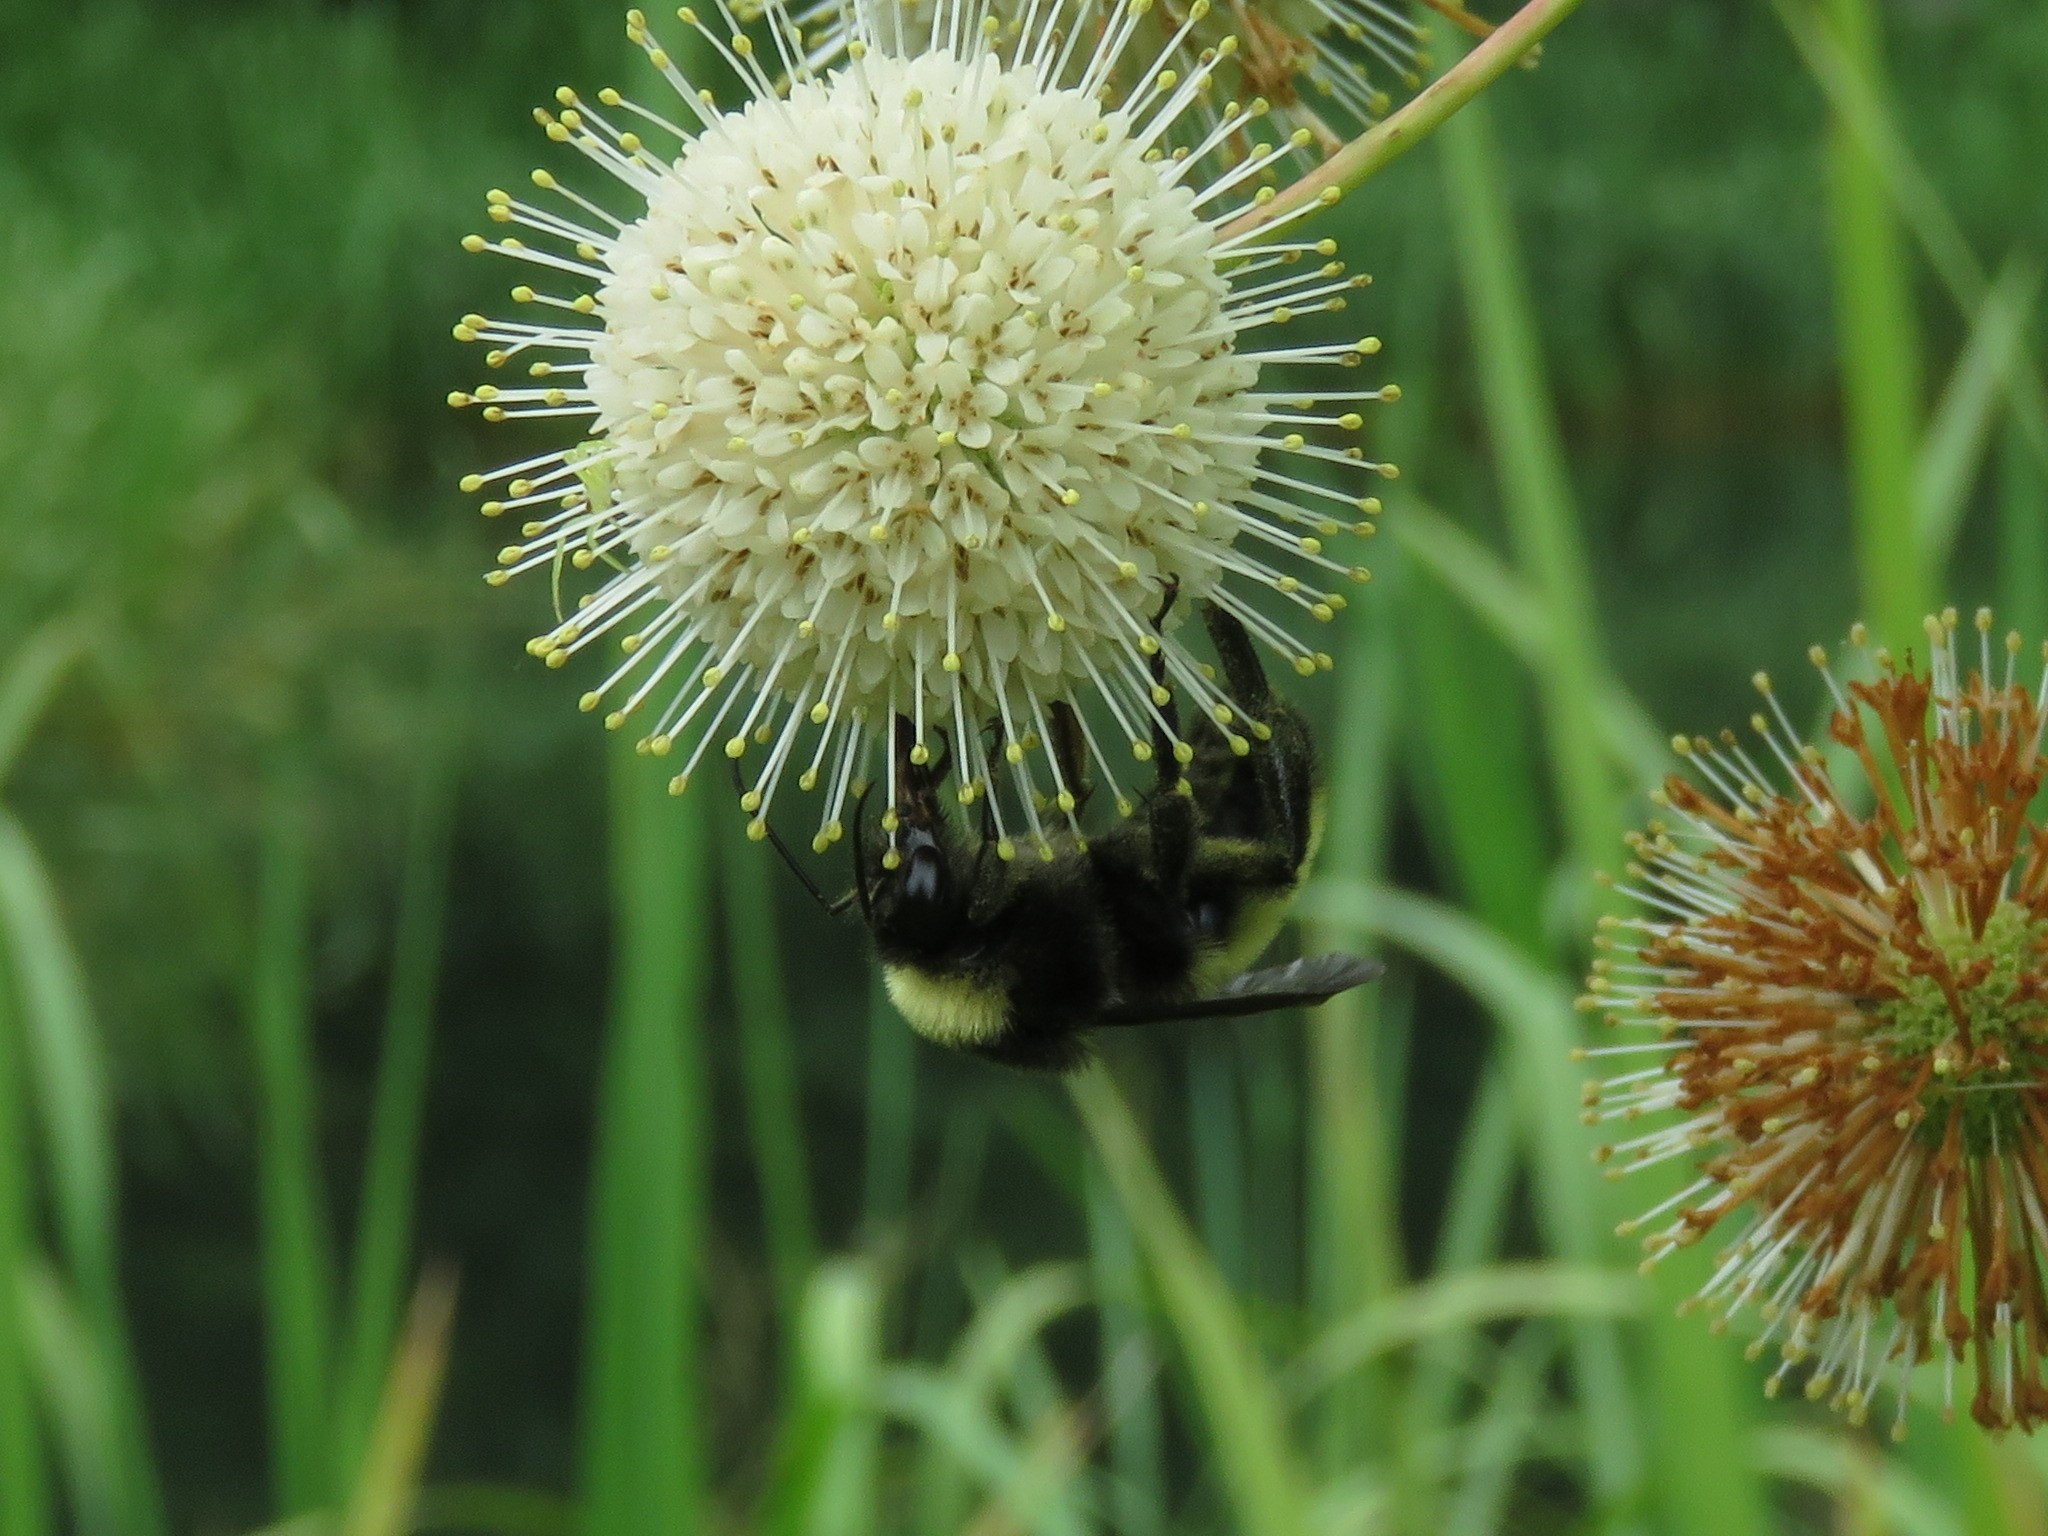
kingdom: Animalia
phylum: Arthropoda
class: Insecta
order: Hymenoptera
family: Apidae
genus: Bombus
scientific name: Bombus pensylvanicus
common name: Bumble bee
